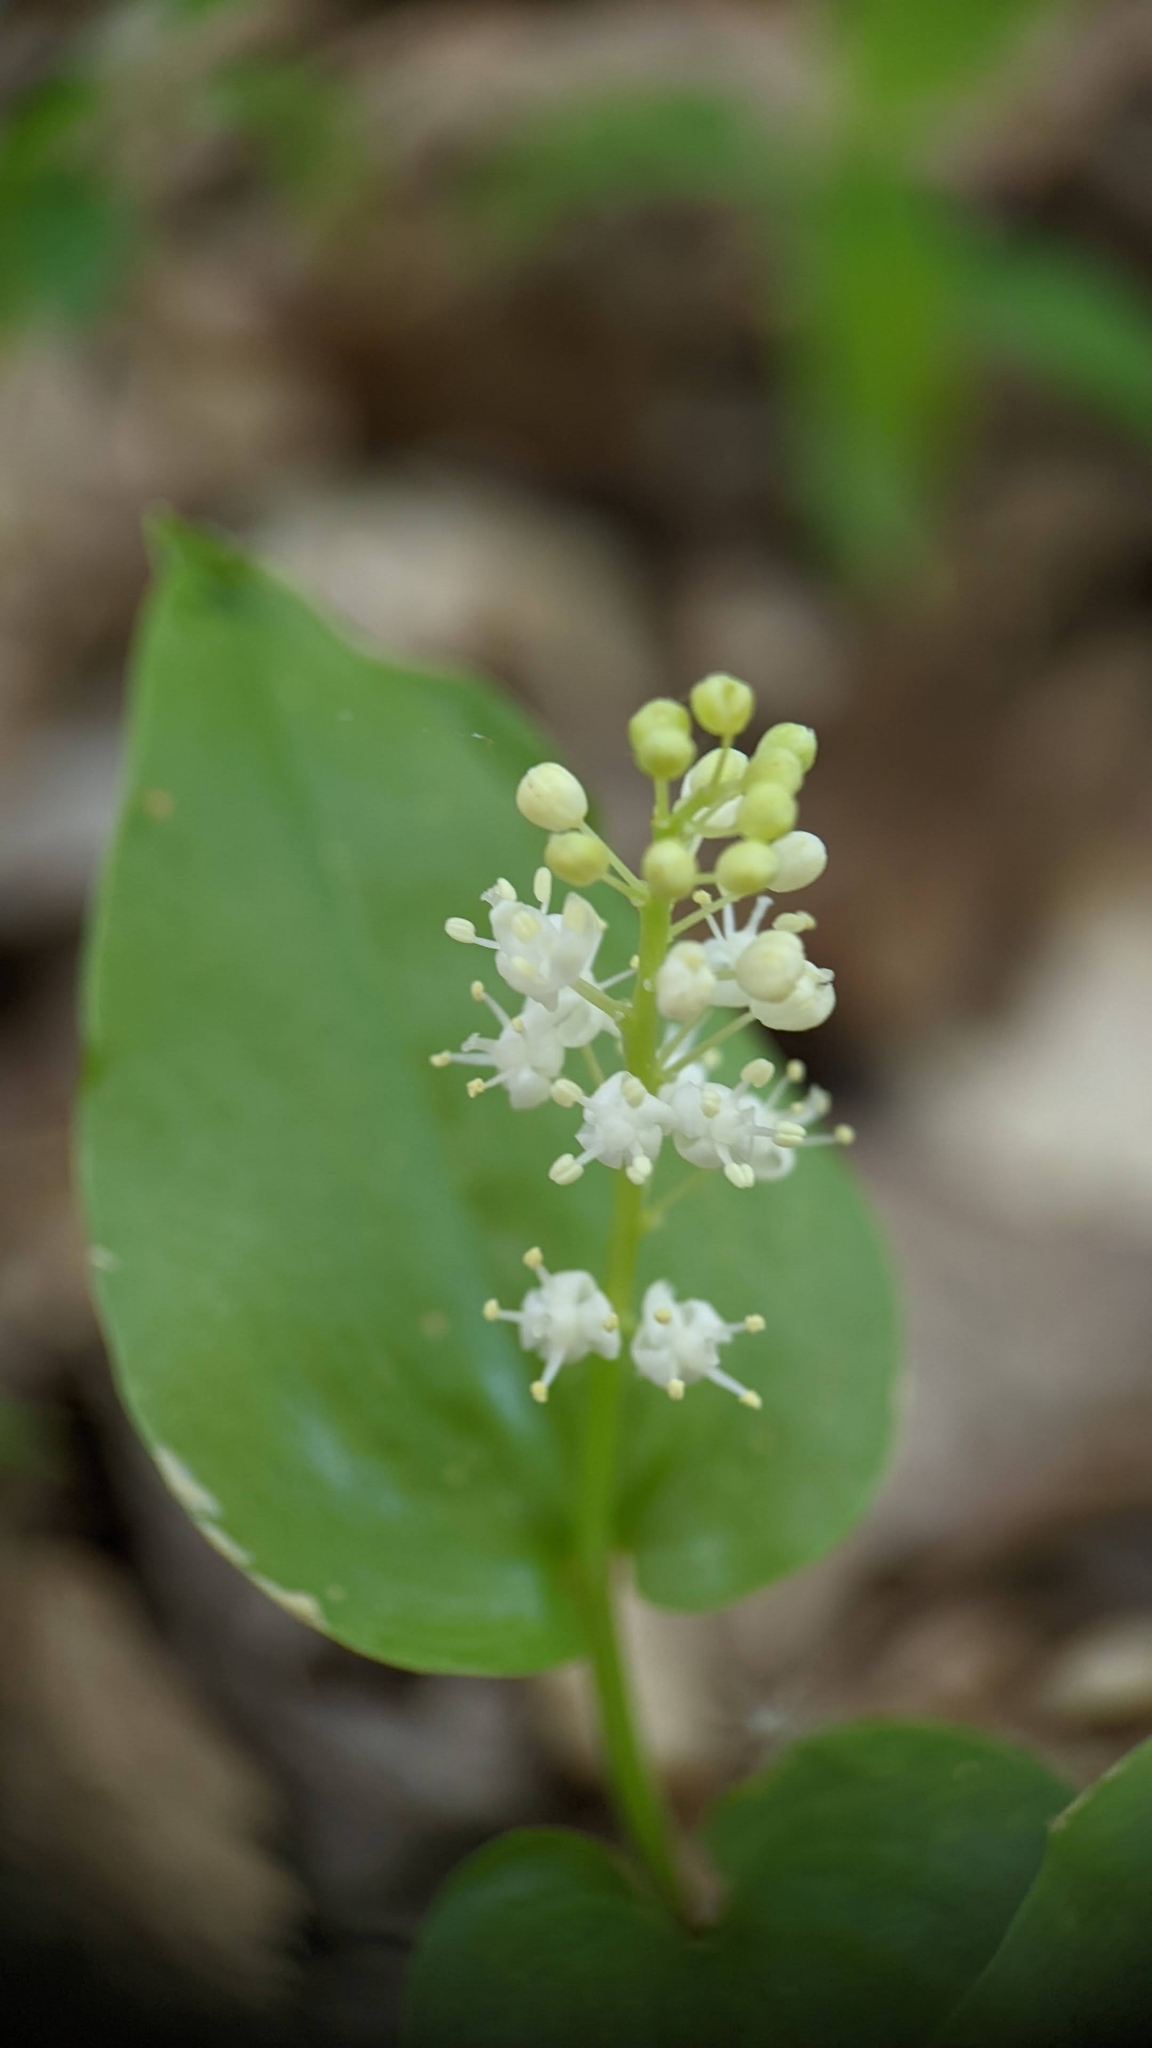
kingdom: Plantae
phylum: Tracheophyta
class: Liliopsida
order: Asparagales
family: Asparagaceae
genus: Maianthemum
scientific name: Maianthemum canadense
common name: False lily-of-the-valley
